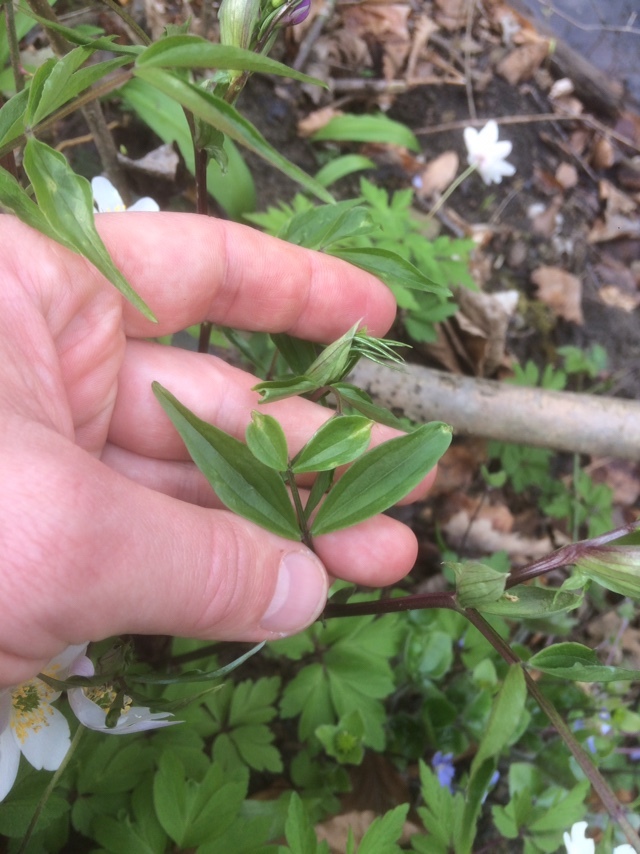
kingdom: Plantae
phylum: Tracheophyta
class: Magnoliopsida
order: Fabales
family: Fabaceae
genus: Lathyrus
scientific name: Lathyrus vernus
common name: Spring pea
